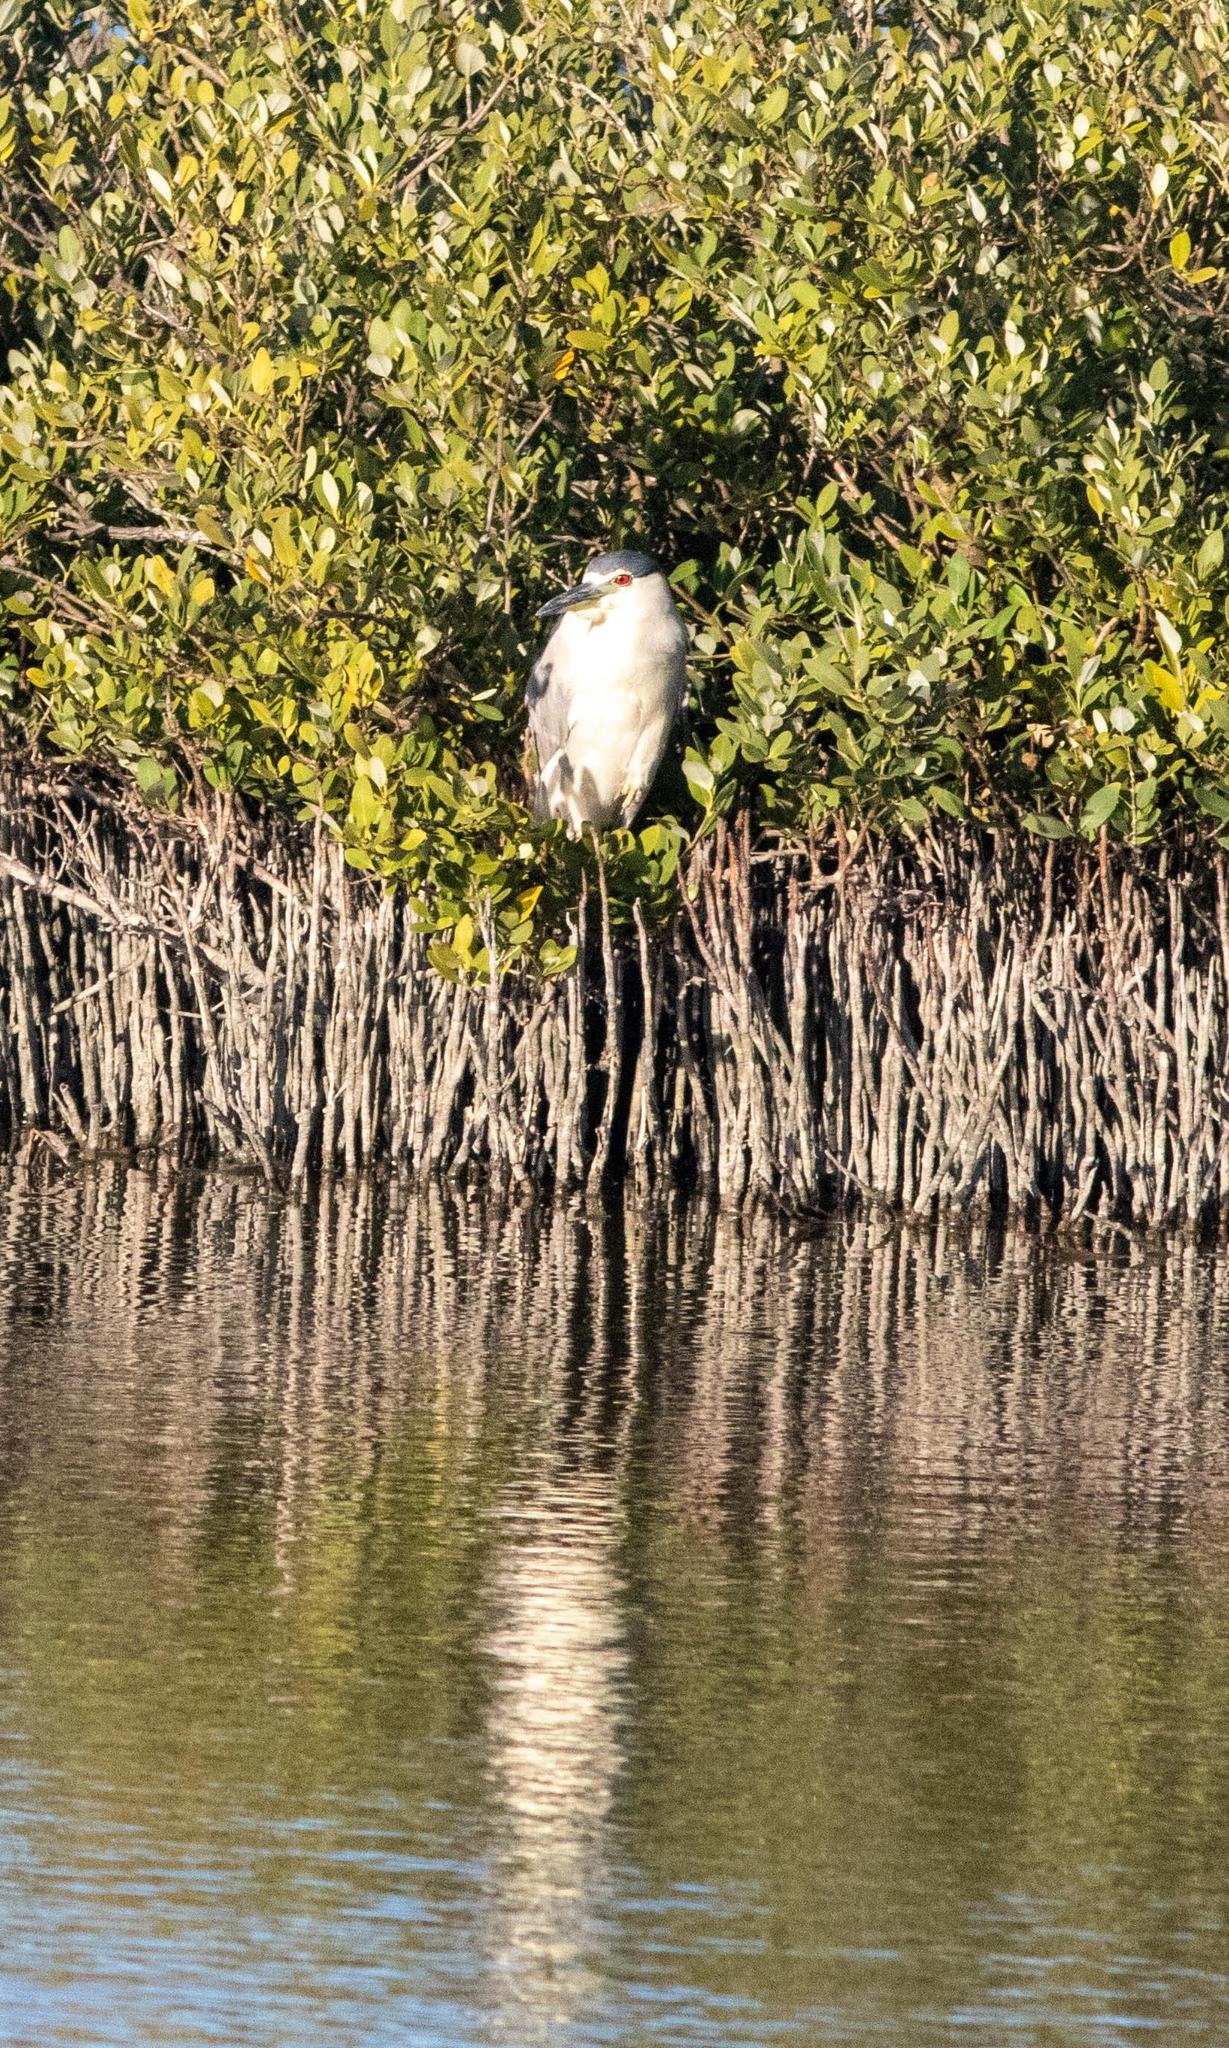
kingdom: Animalia
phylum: Chordata
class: Aves
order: Pelecaniformes
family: Ardeidae
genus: Nycticorax
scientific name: Nycticorax nycticorax
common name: Black-crowned night heron
